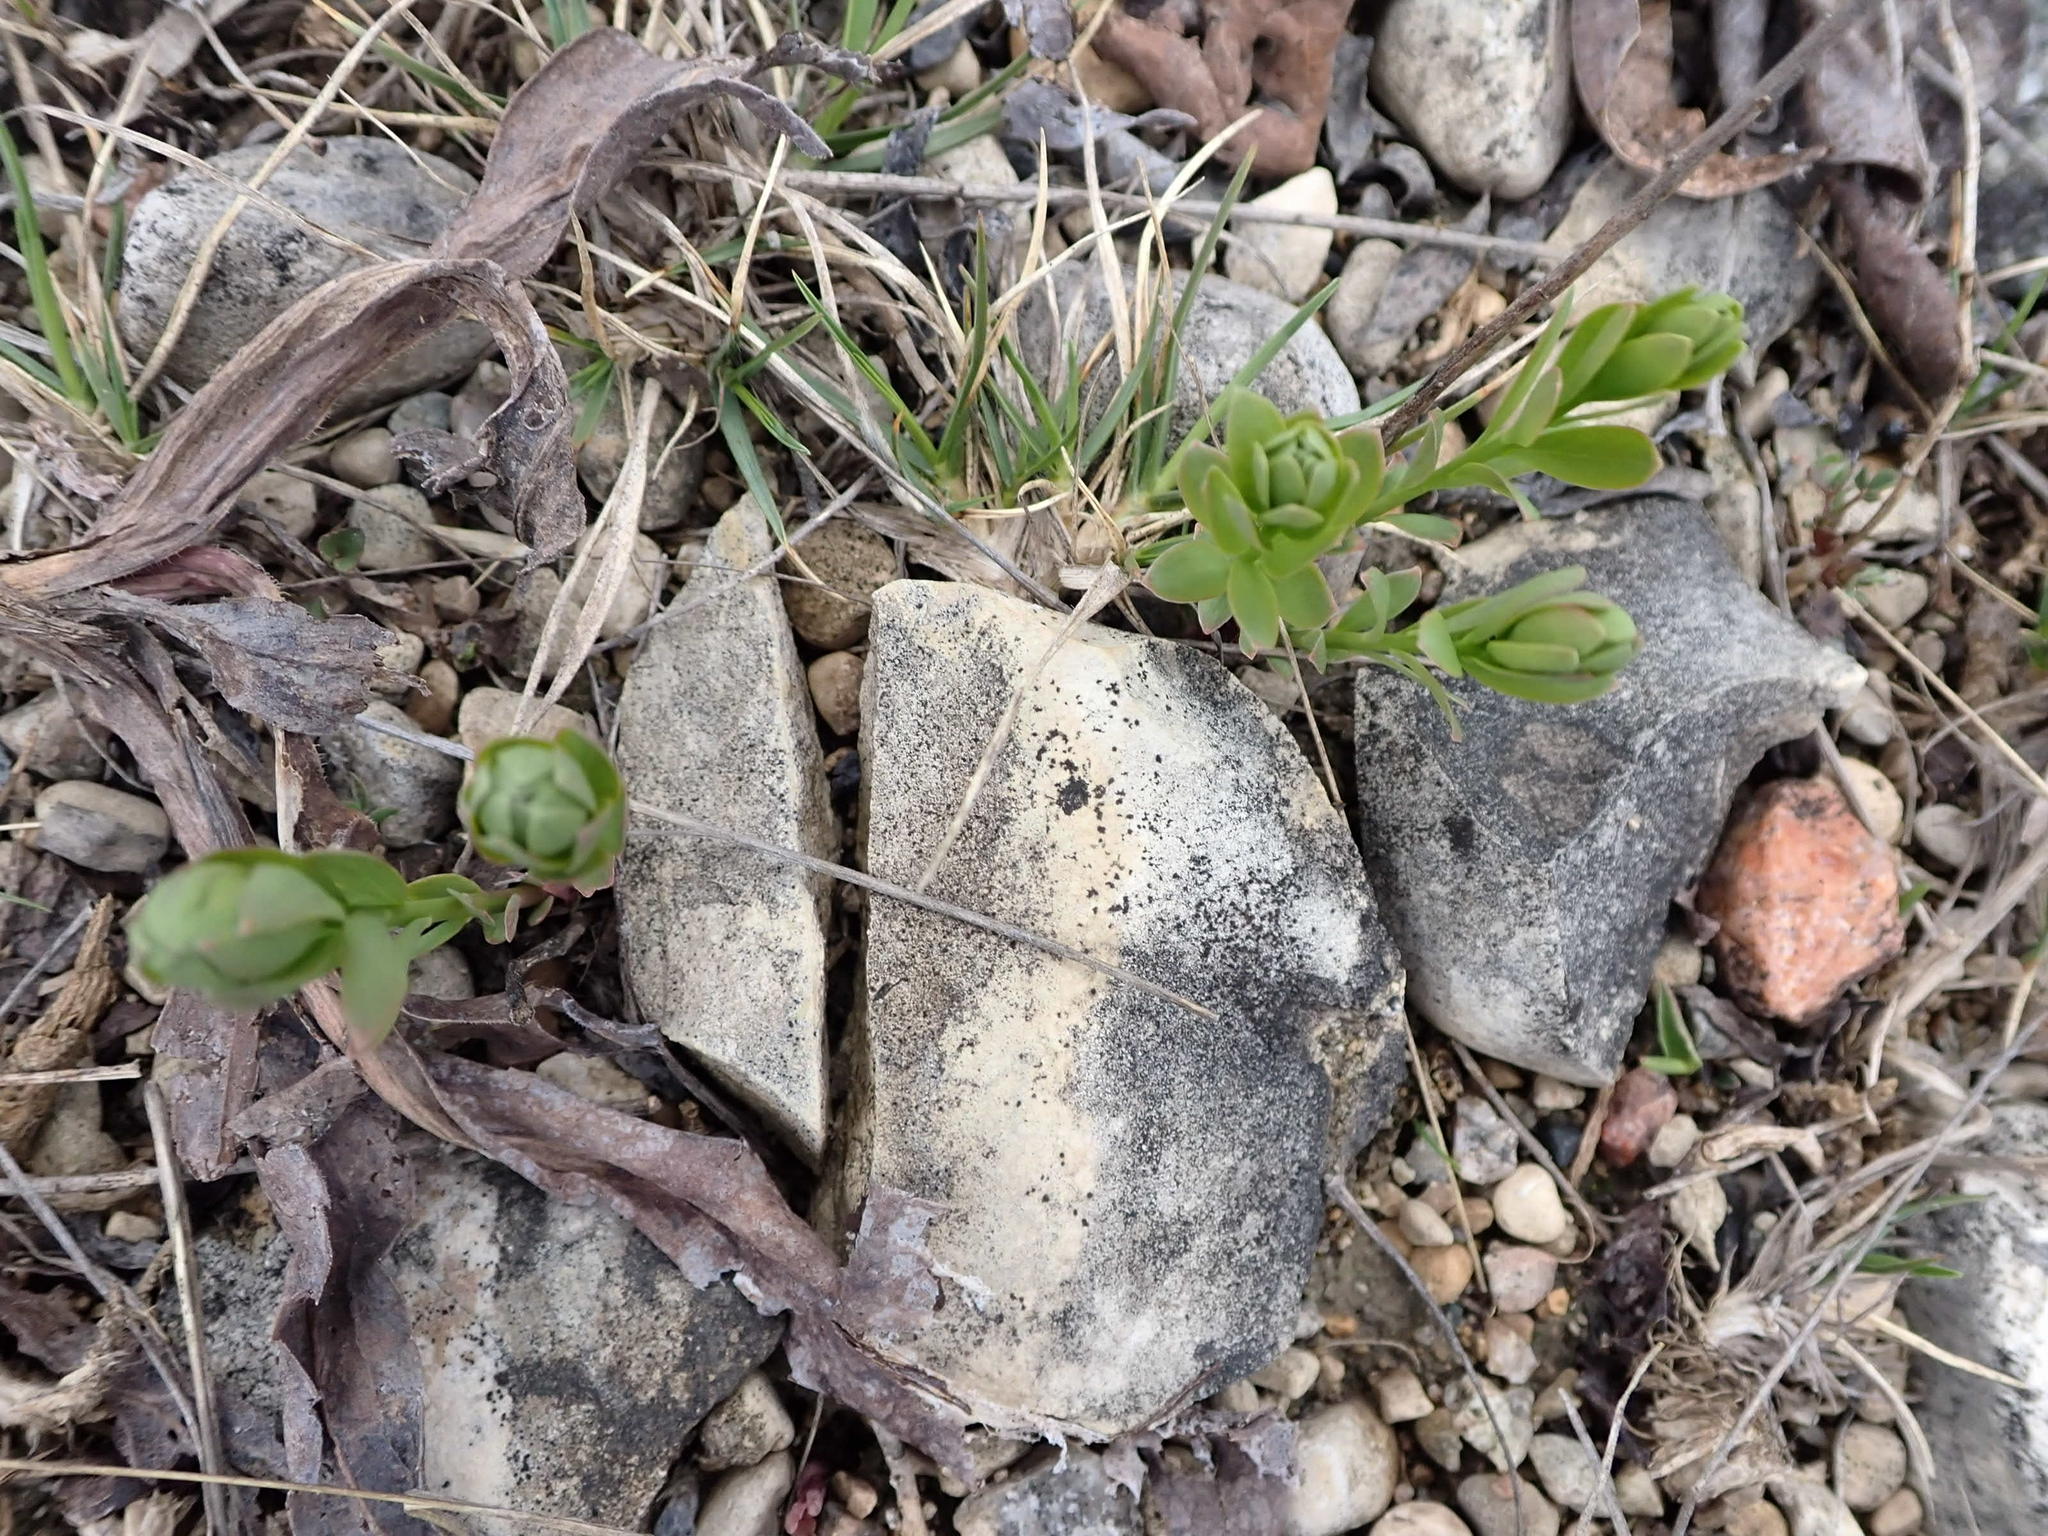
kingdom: Plantae
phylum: Tracheophyta
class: Magnoliopsida
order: Santalales
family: Comandraceae
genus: Comandra
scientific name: Comandra umbellata
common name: Bastard toadflax
